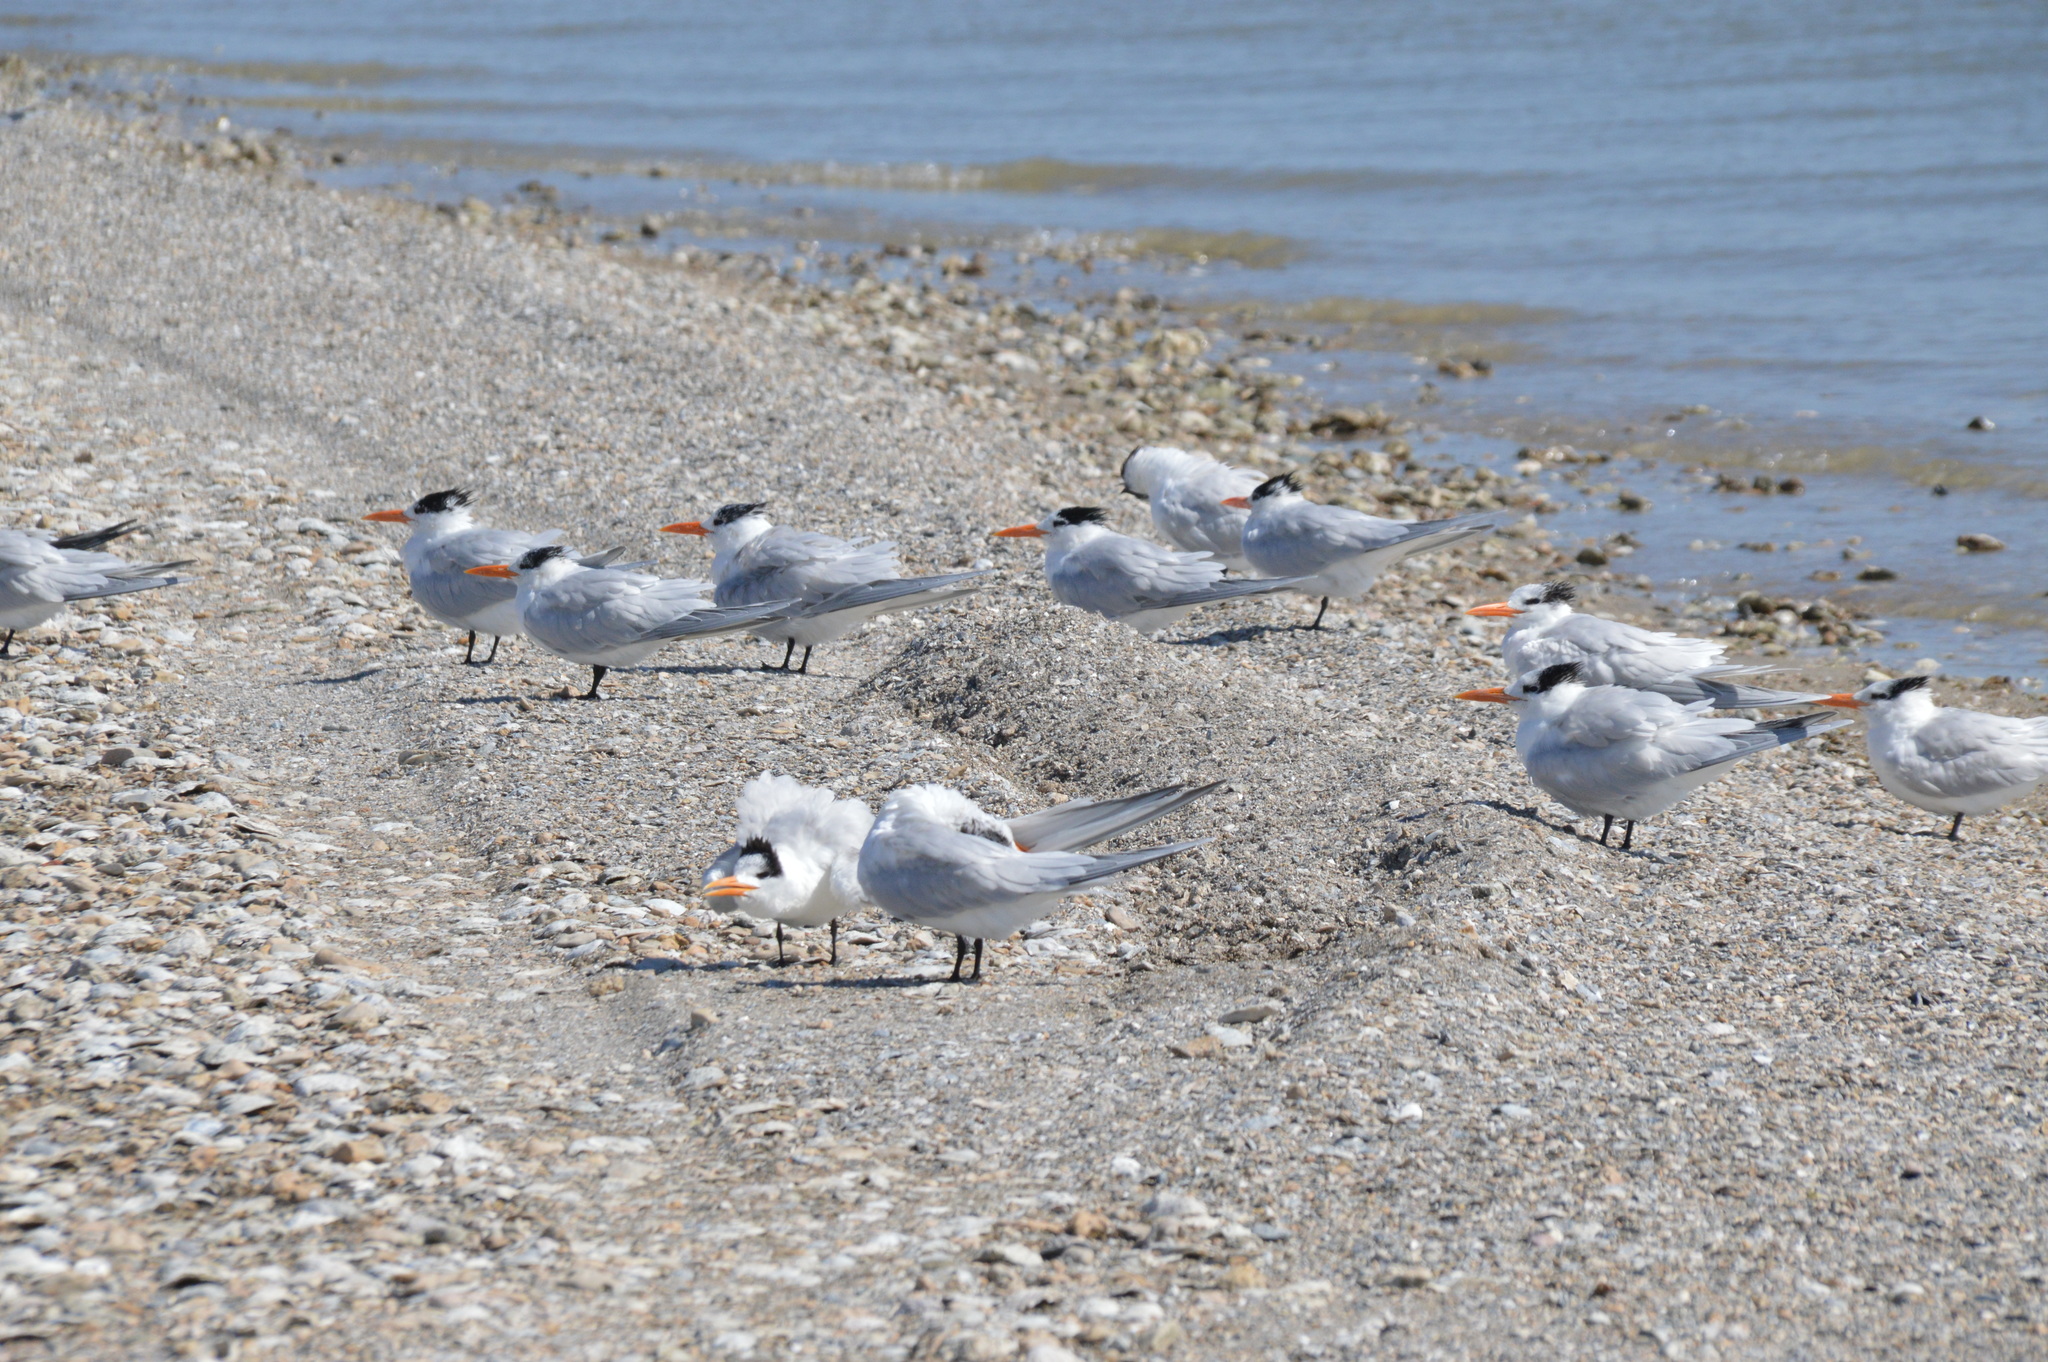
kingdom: Animalia
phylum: Chordata
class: Aves
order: Charadriiformes
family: Laridae
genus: Thalasseus
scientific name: Thalasseus maximus
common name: Royal tern
